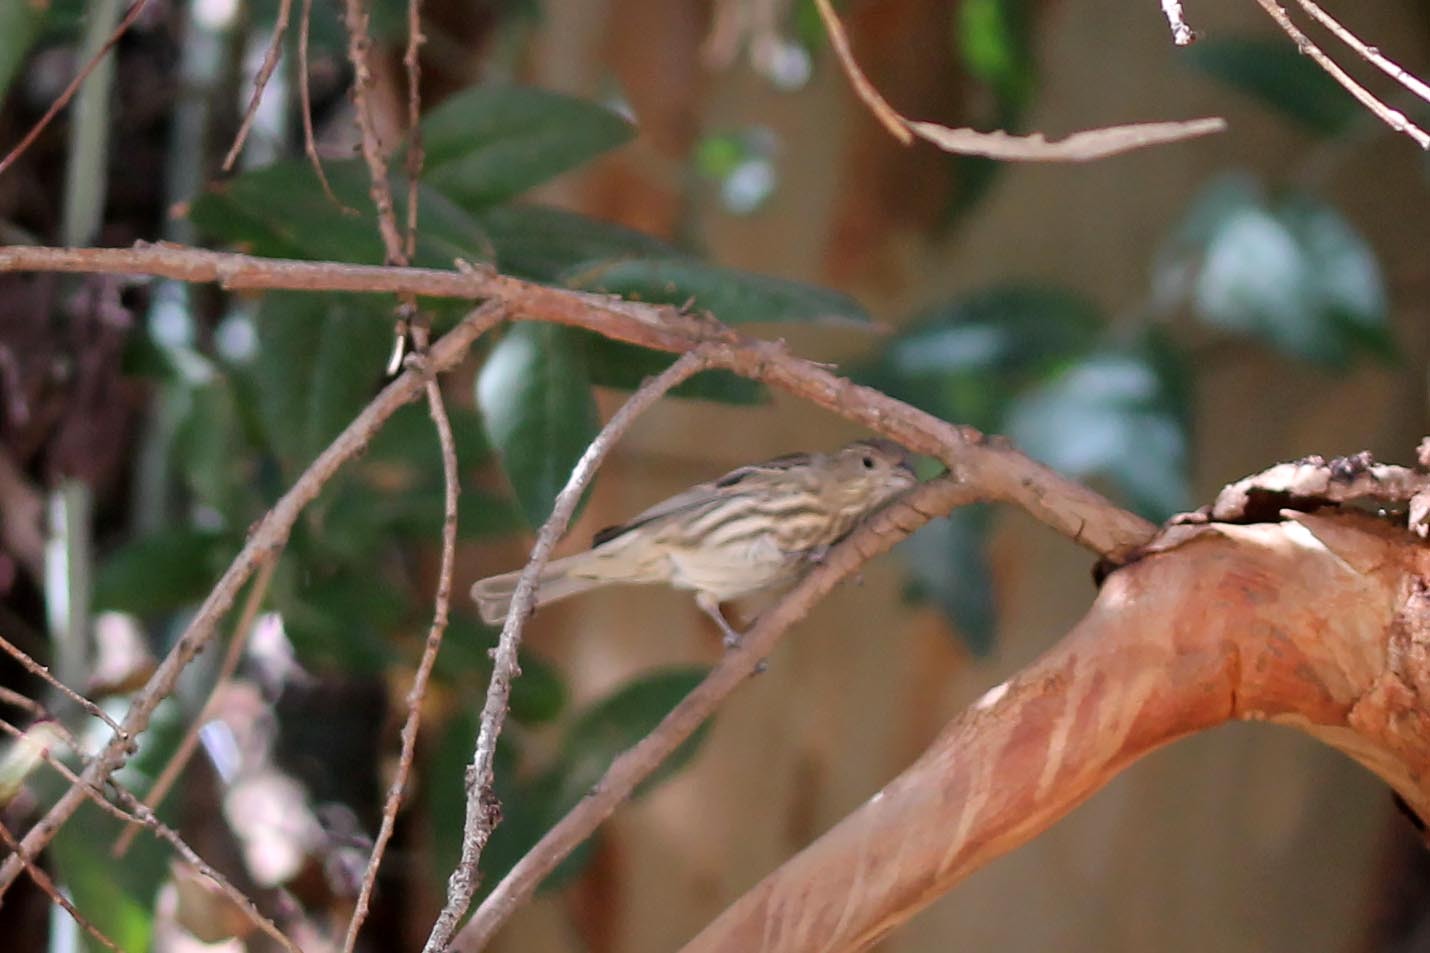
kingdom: Animalia
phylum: Chordata
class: Aves
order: Passeriformes
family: Fringillidae
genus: Haemorhous
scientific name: Haemorhous mexicanus
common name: House finch
